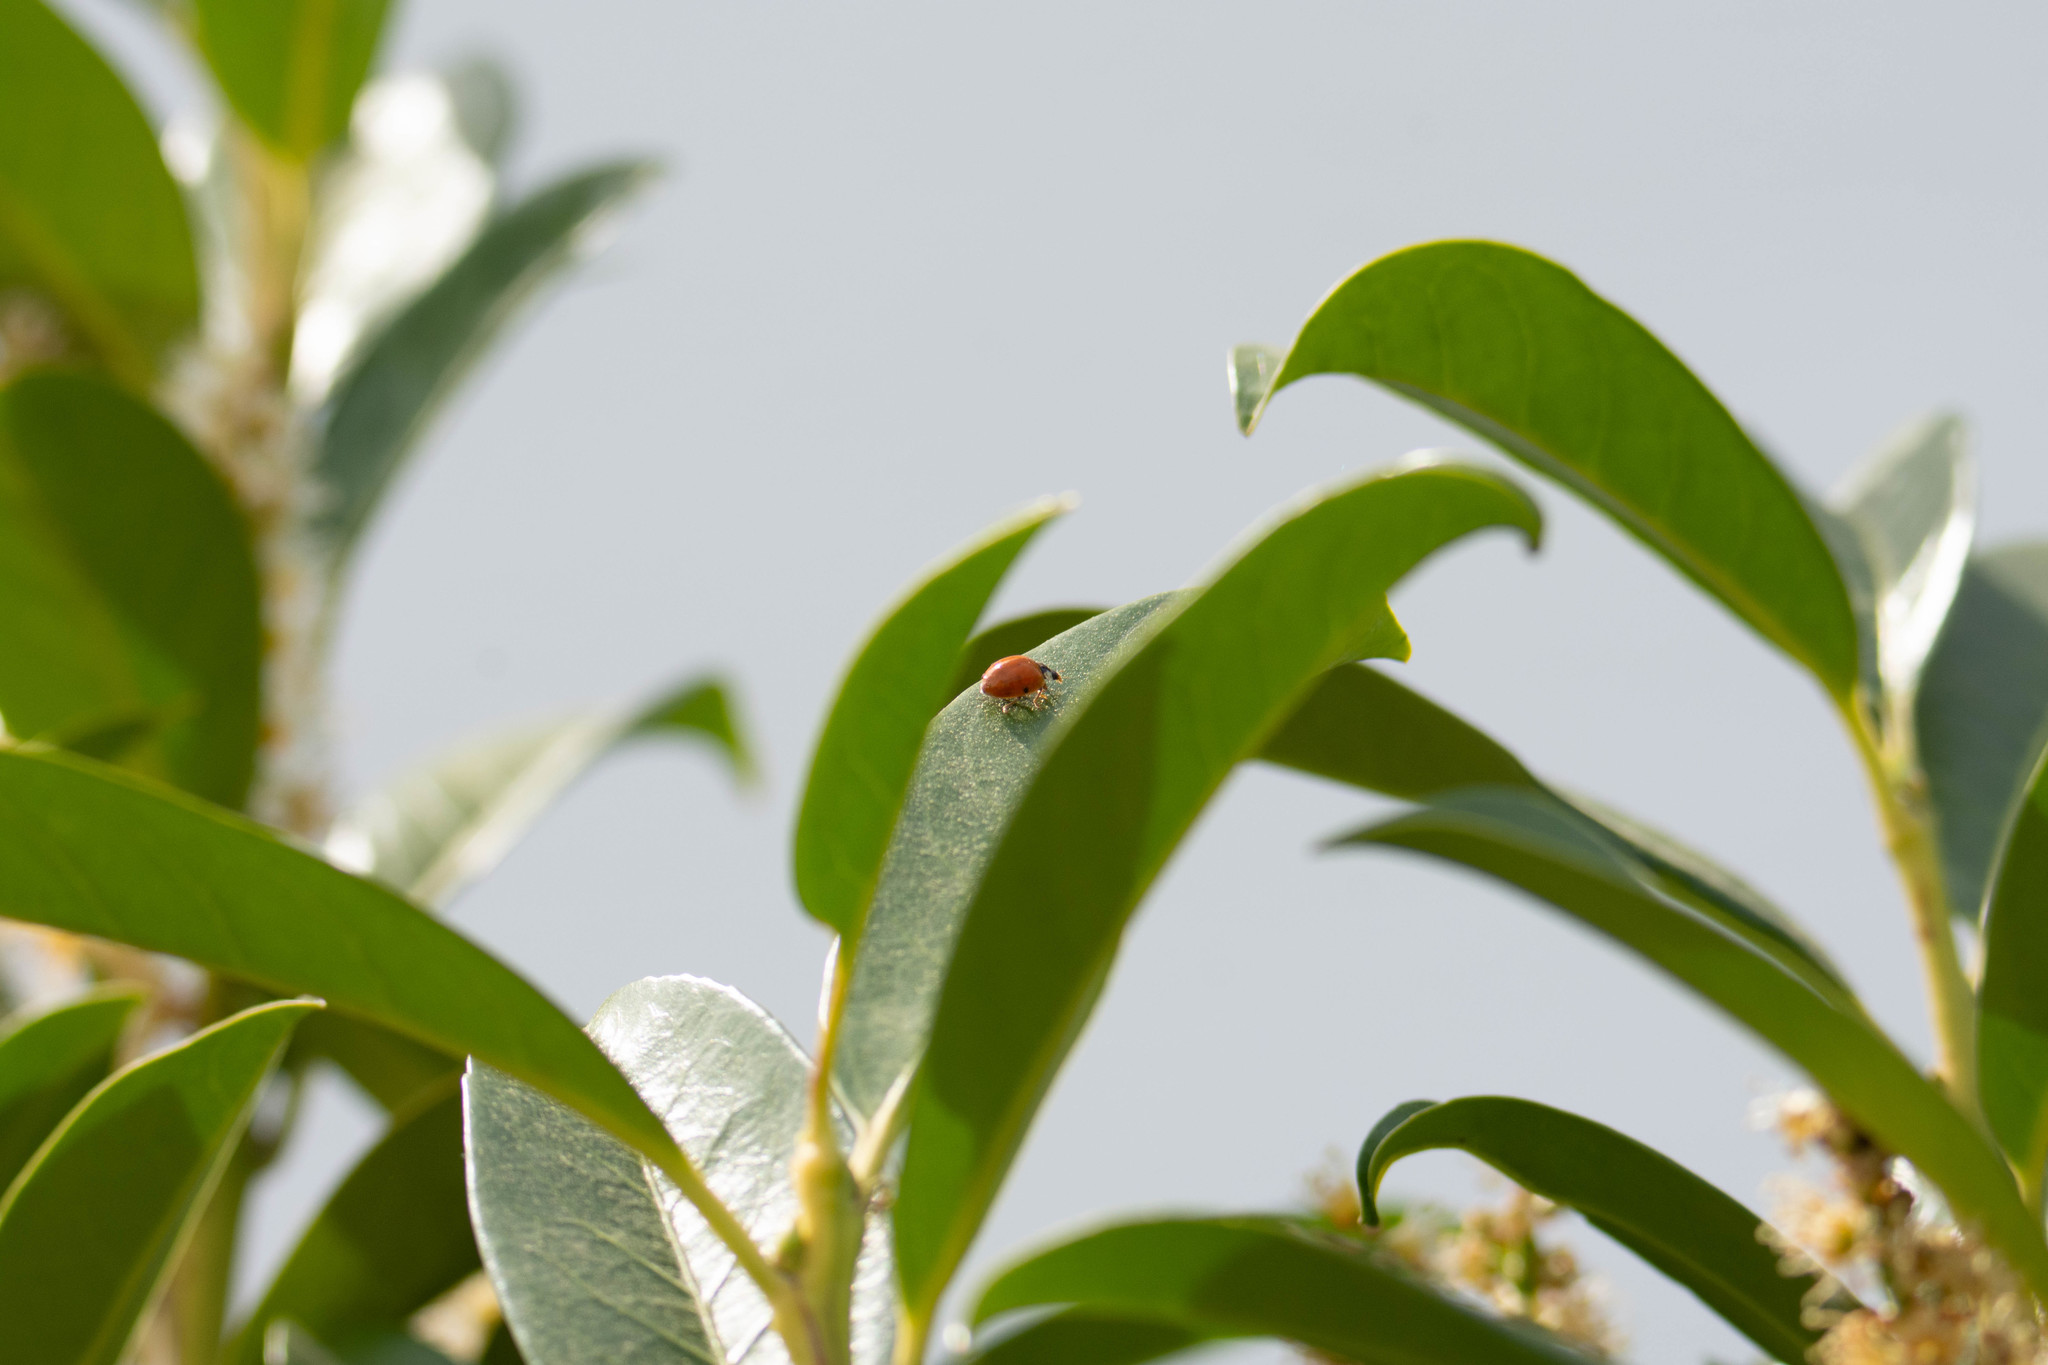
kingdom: Animalia
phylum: Arthropoda
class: Insecta
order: Coleoptera
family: Coccinellidae
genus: Harmonia
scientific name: Harmonia axyridis
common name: Harlequin ladybird
